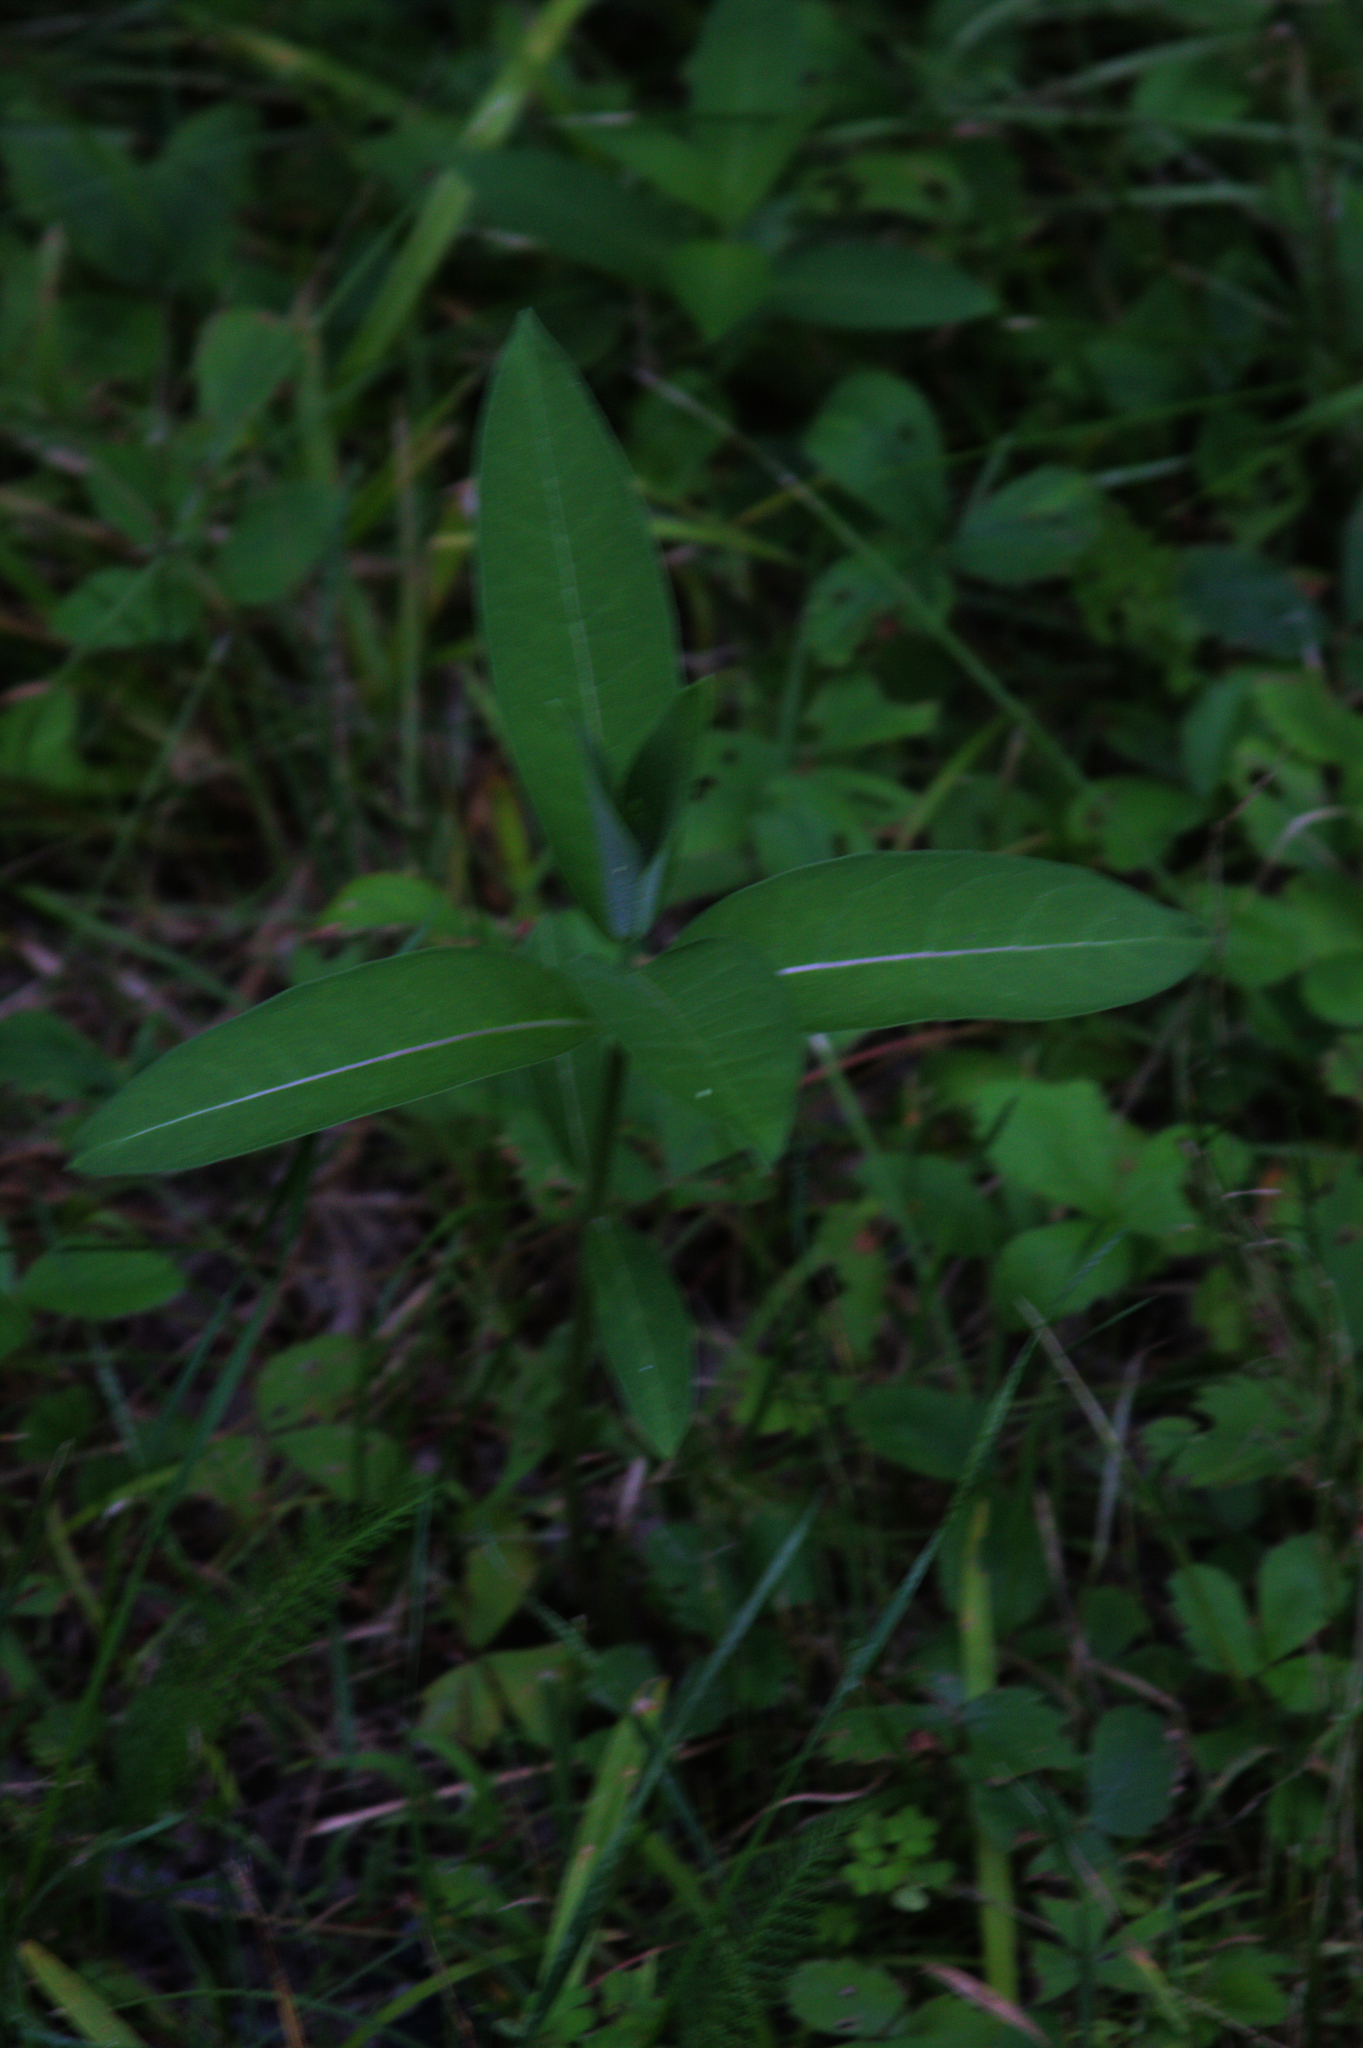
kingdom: Plantae
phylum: Tracheophyta
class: Magnoliopsida
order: Gentianales
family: Apocynaceae
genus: Asclepias
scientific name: Asclepias syriaca
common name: Common milkweed
